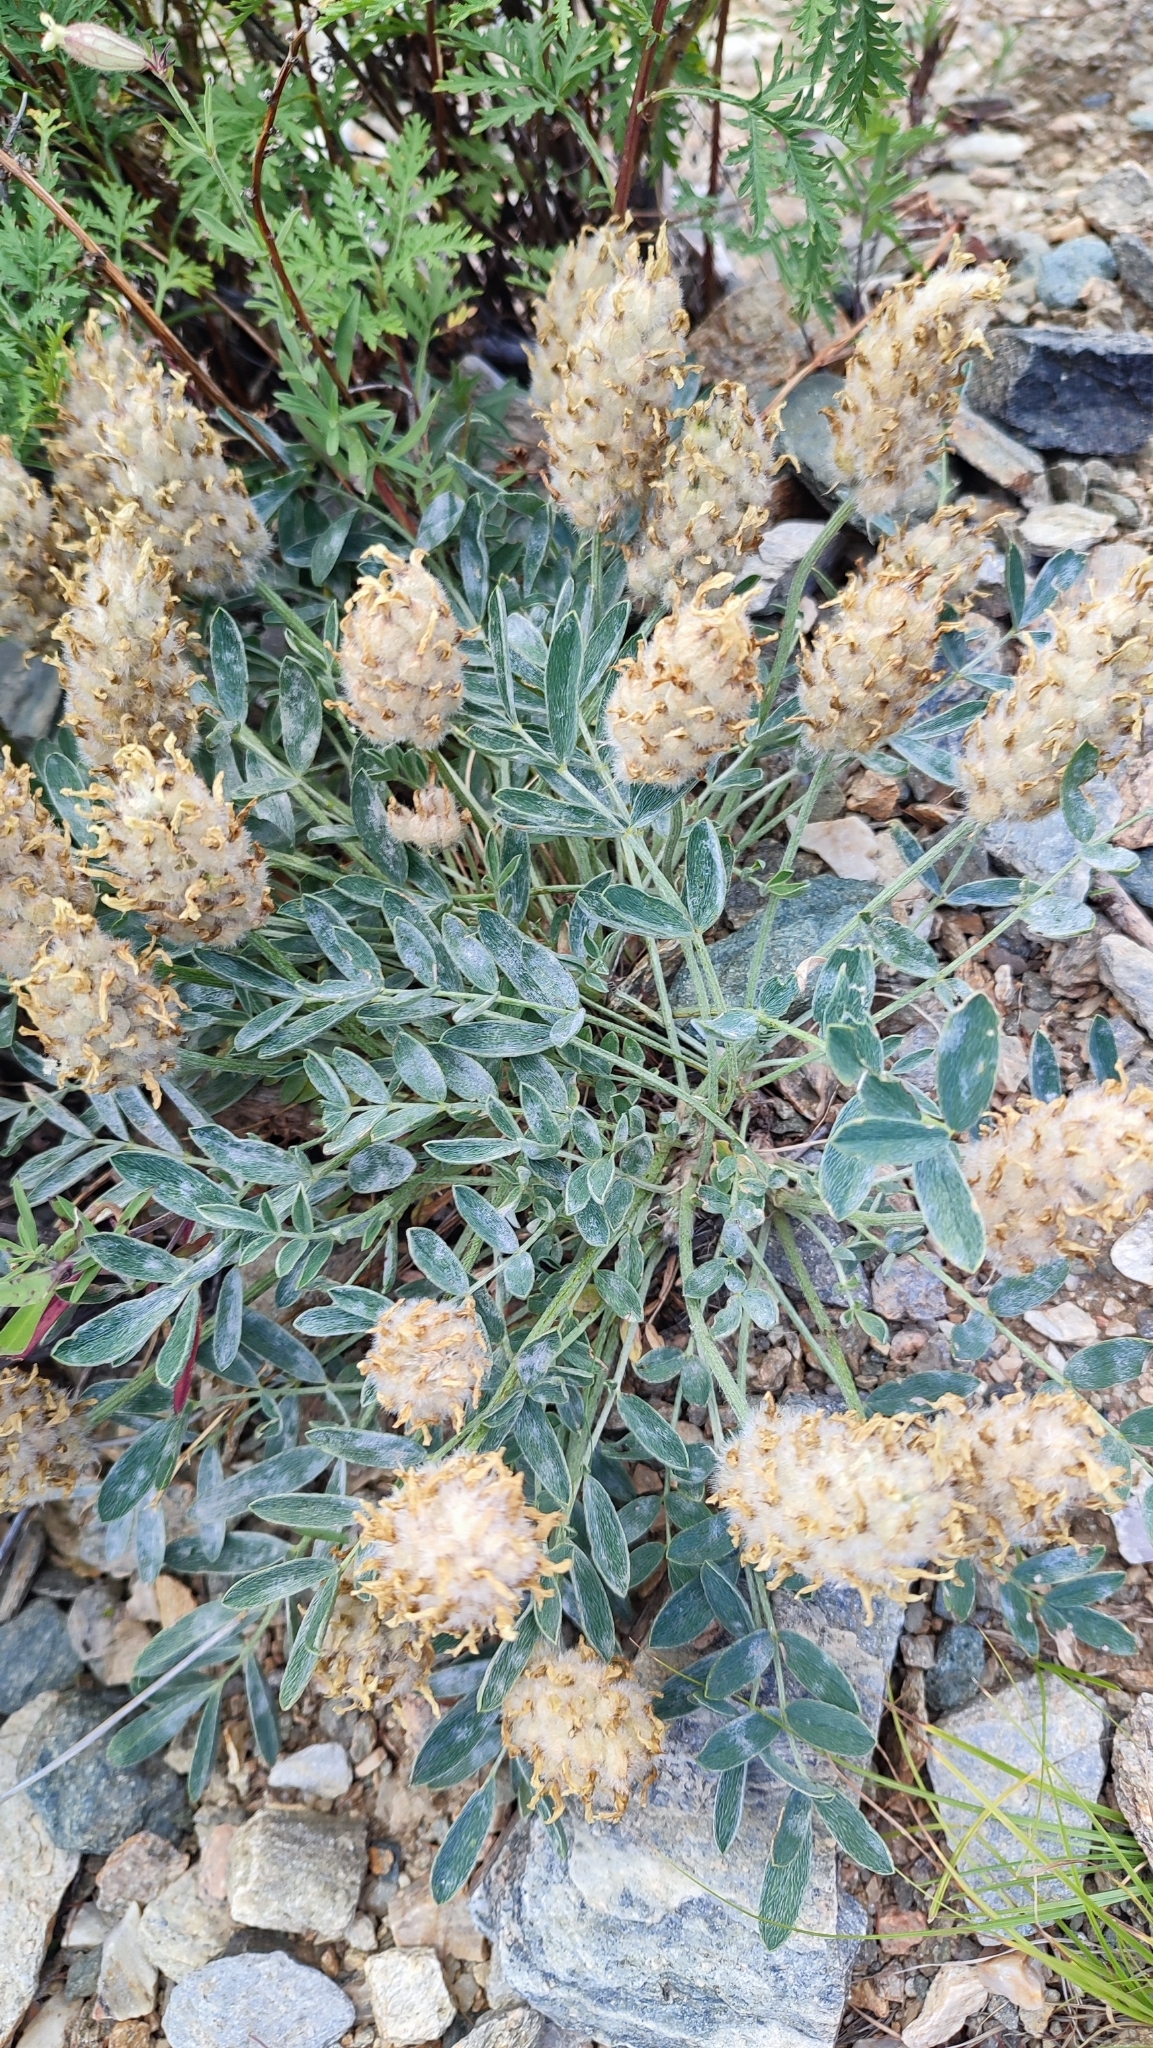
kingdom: Plantae
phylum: Tracheophyta
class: Magnoliopsida
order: Fabales
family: Fabaceae
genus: Astragalus
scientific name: Astragalus lupulinus
